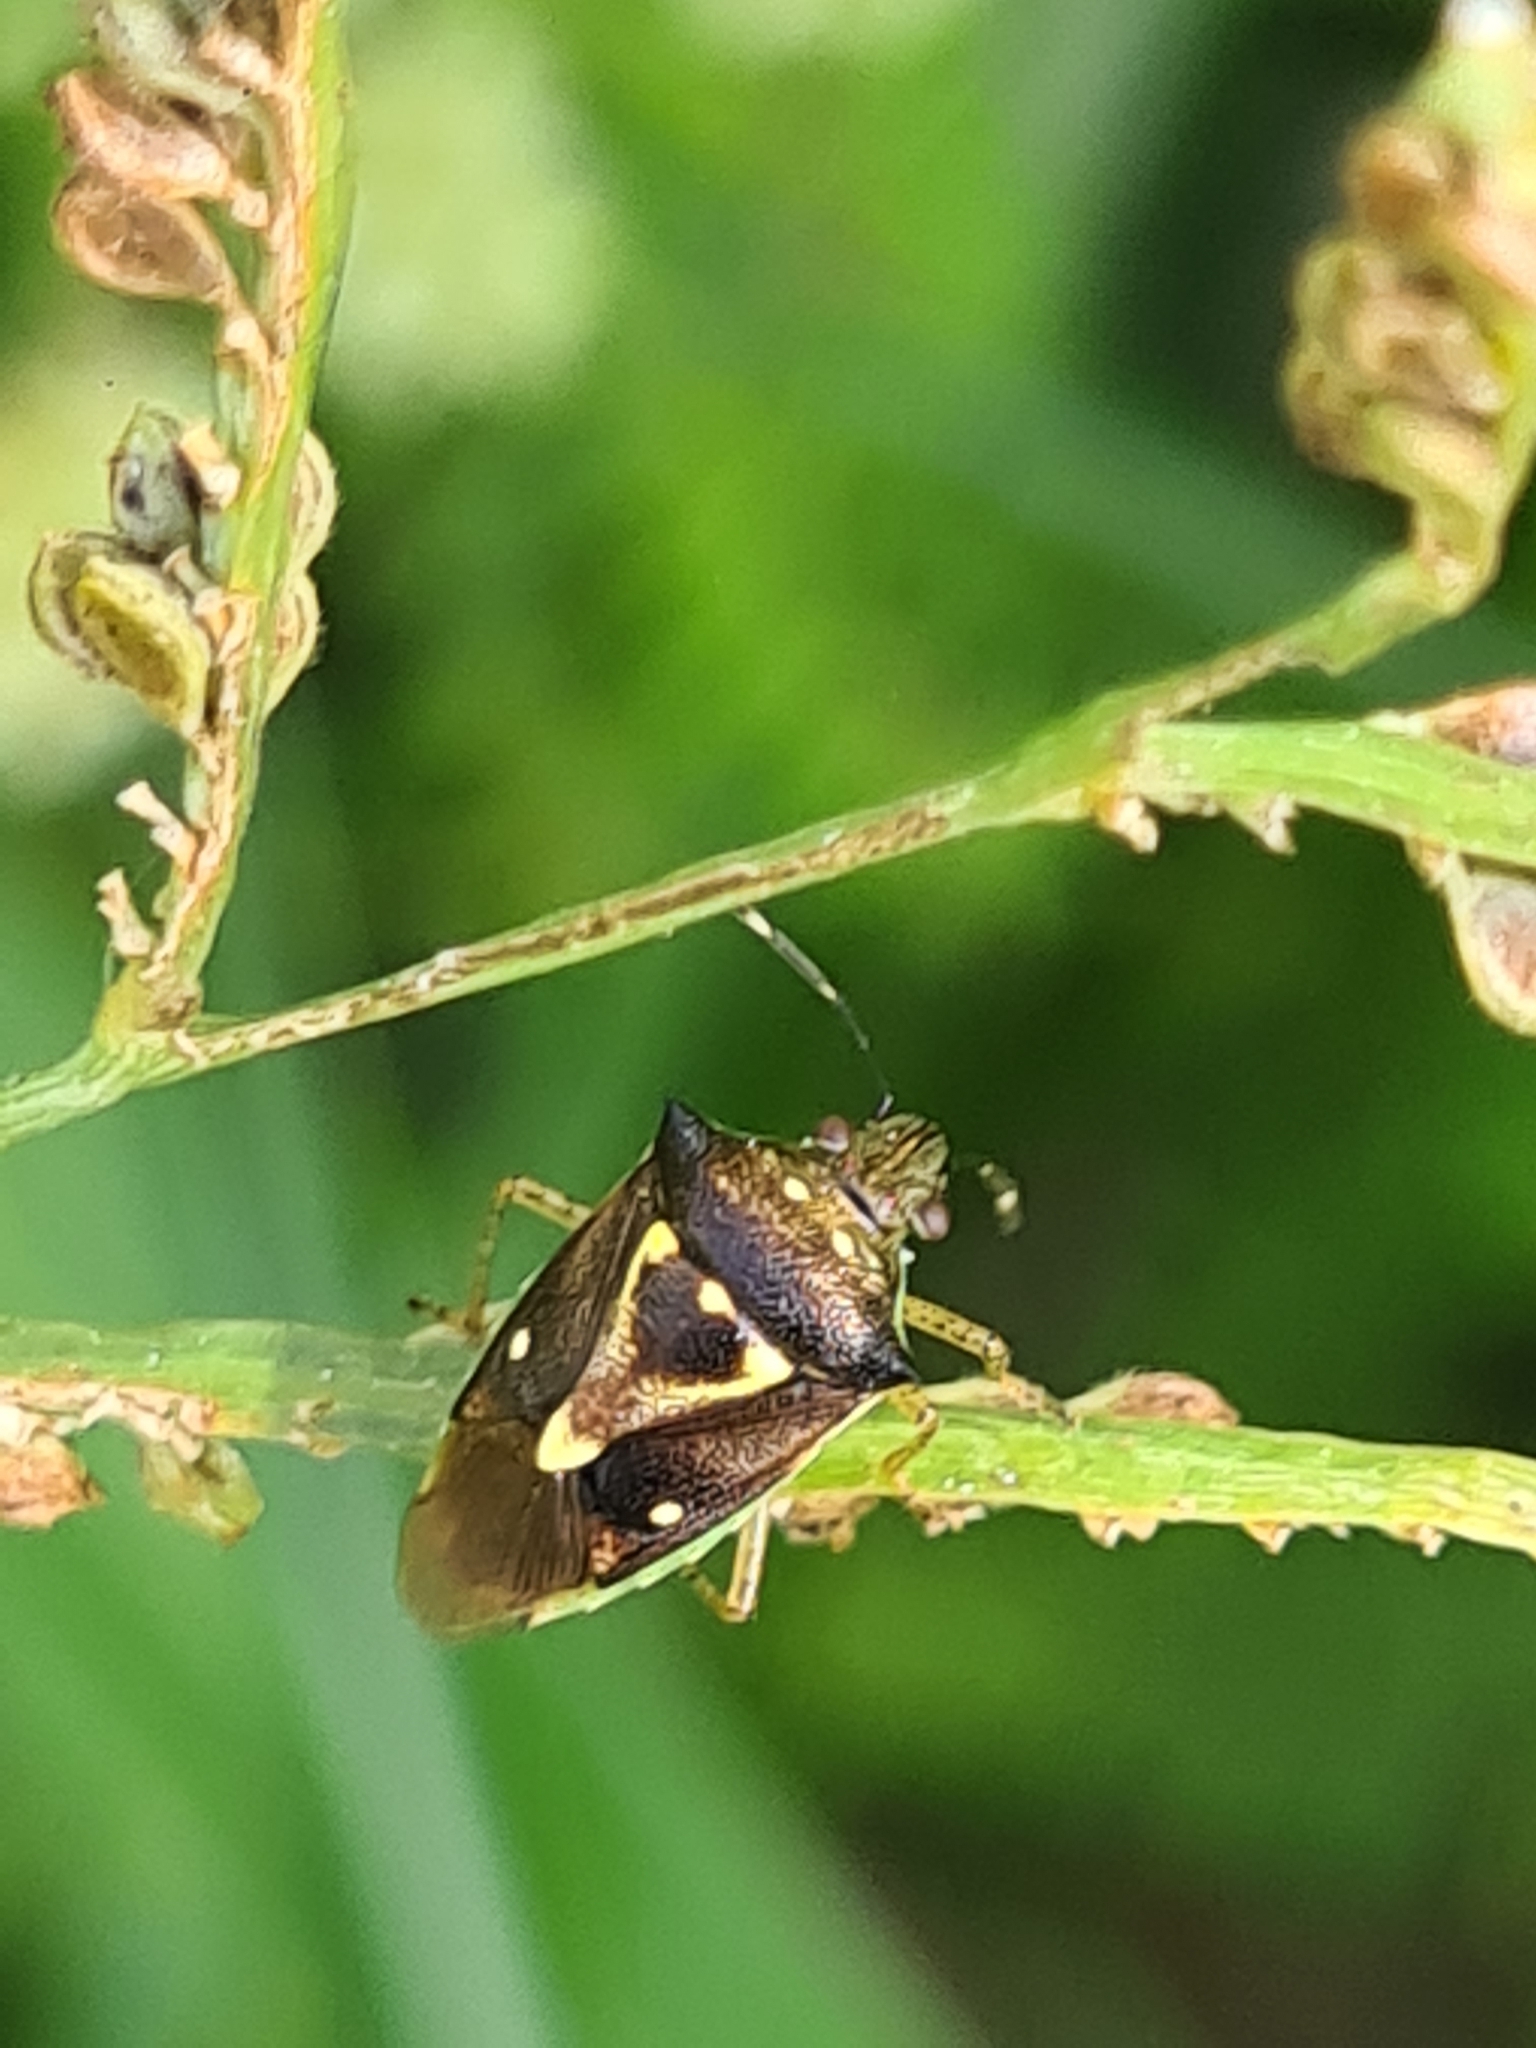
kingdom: Animalia
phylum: Arthropoda
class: Insecta
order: Hemiptera
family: Pentatomidae
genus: Mormidea
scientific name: Mormidea ypsilon
